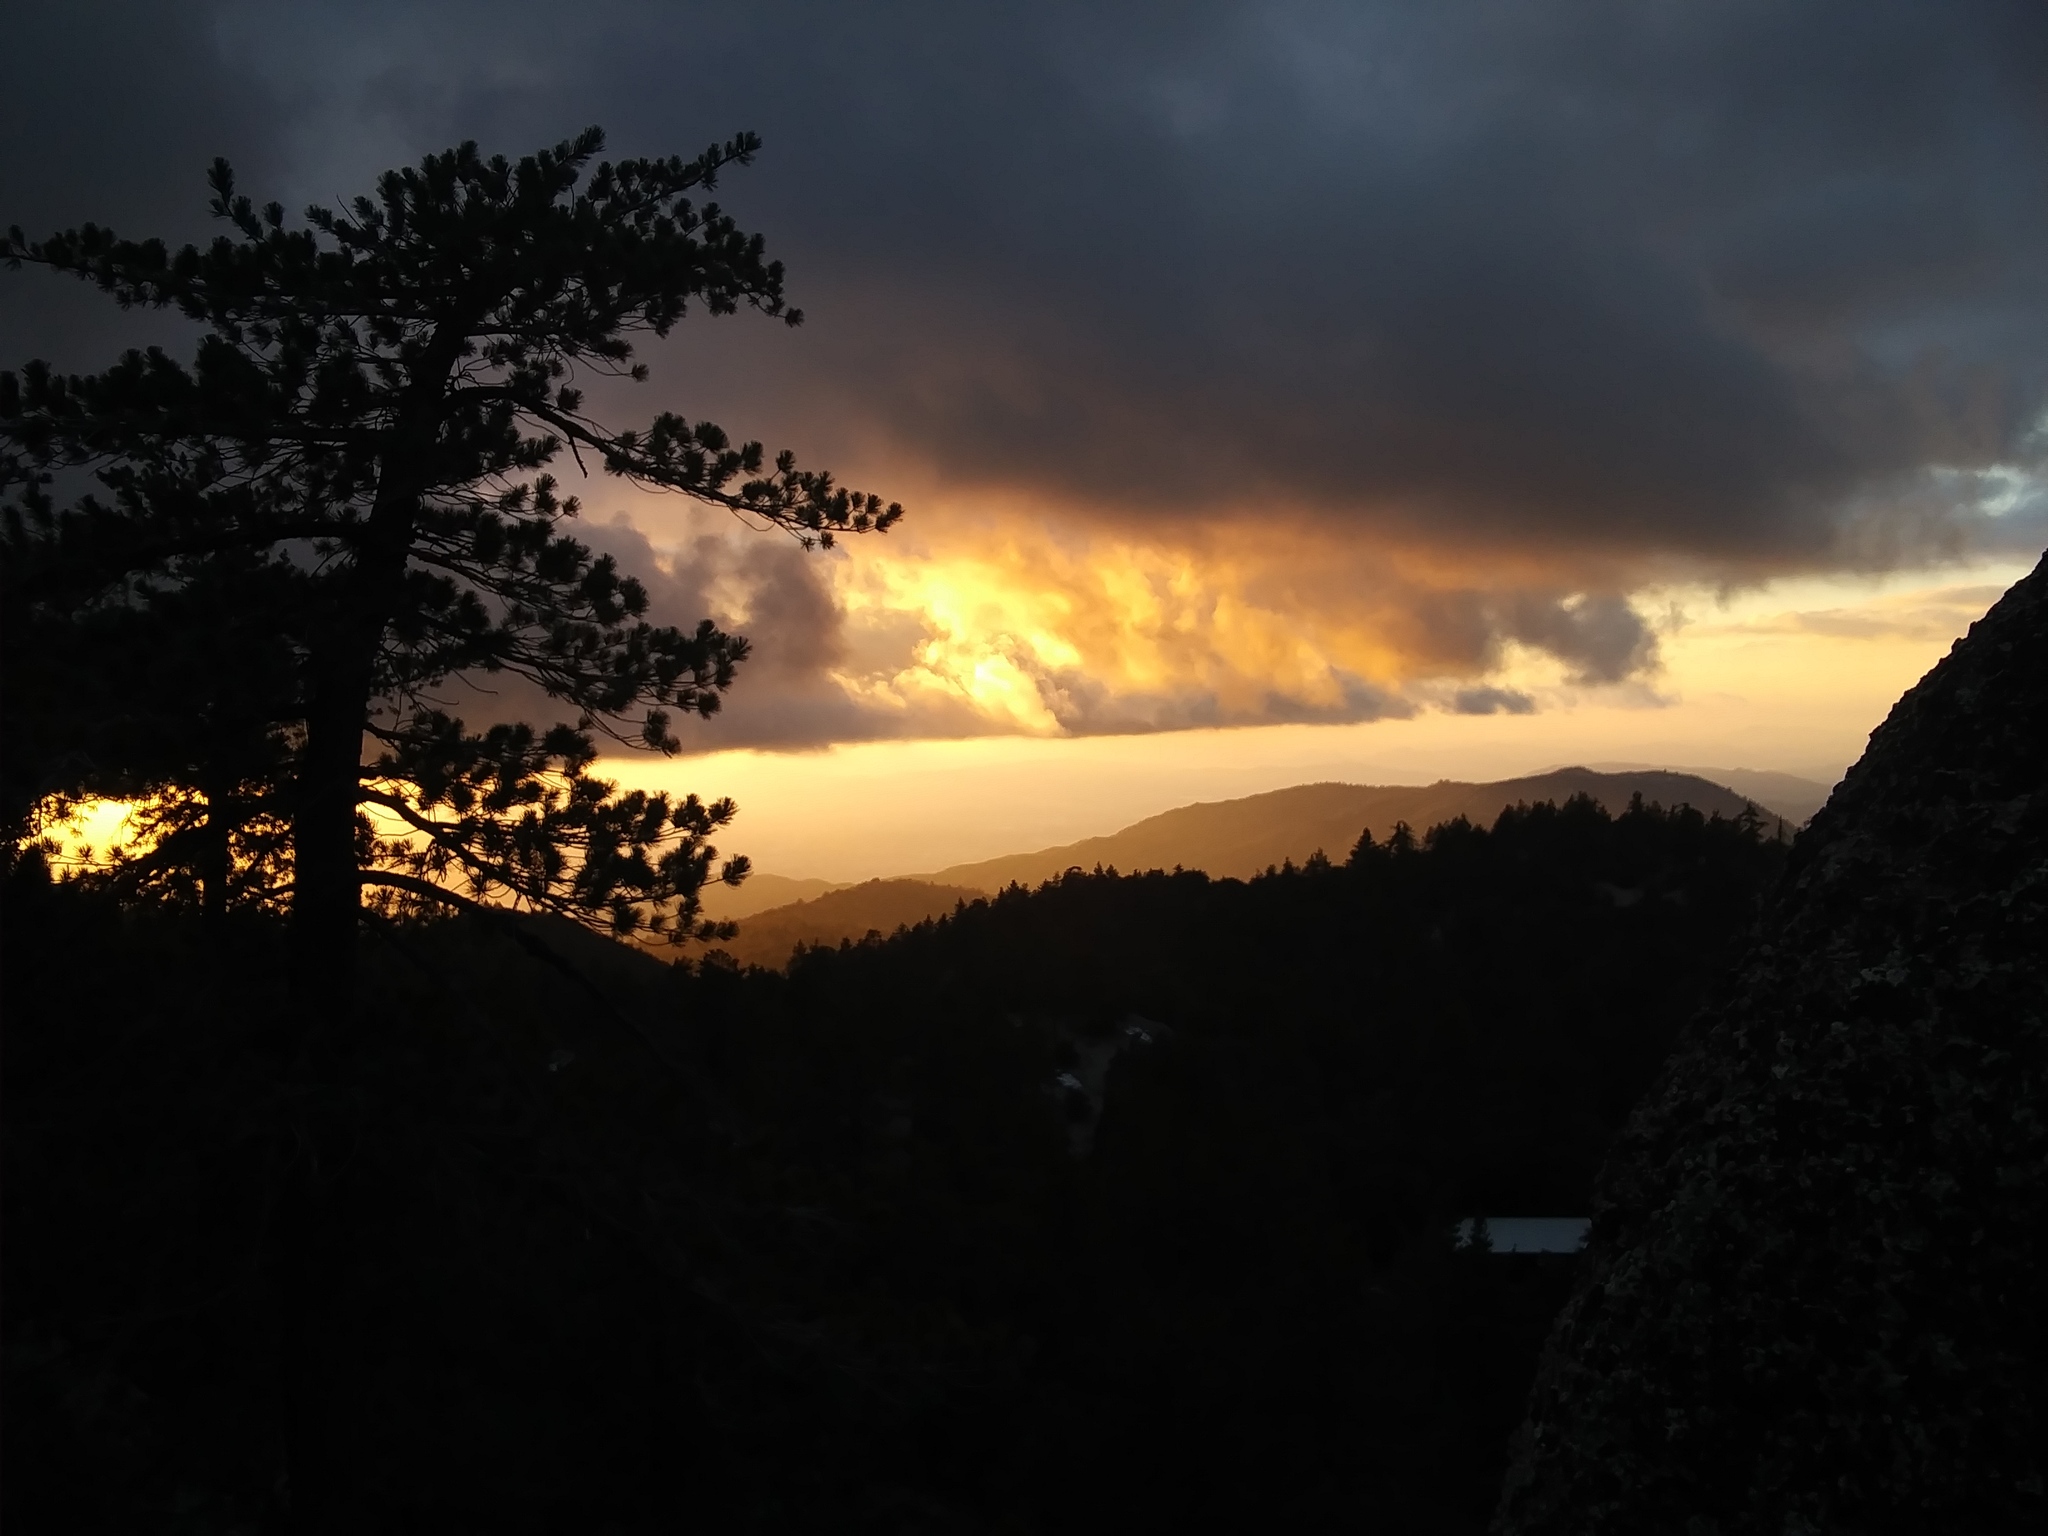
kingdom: Plantae
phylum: Tracheophyta
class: Pinopsida
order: Pinales
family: Pinaceae
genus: Pinus
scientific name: Pinus lambertiana
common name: Sugar pine
